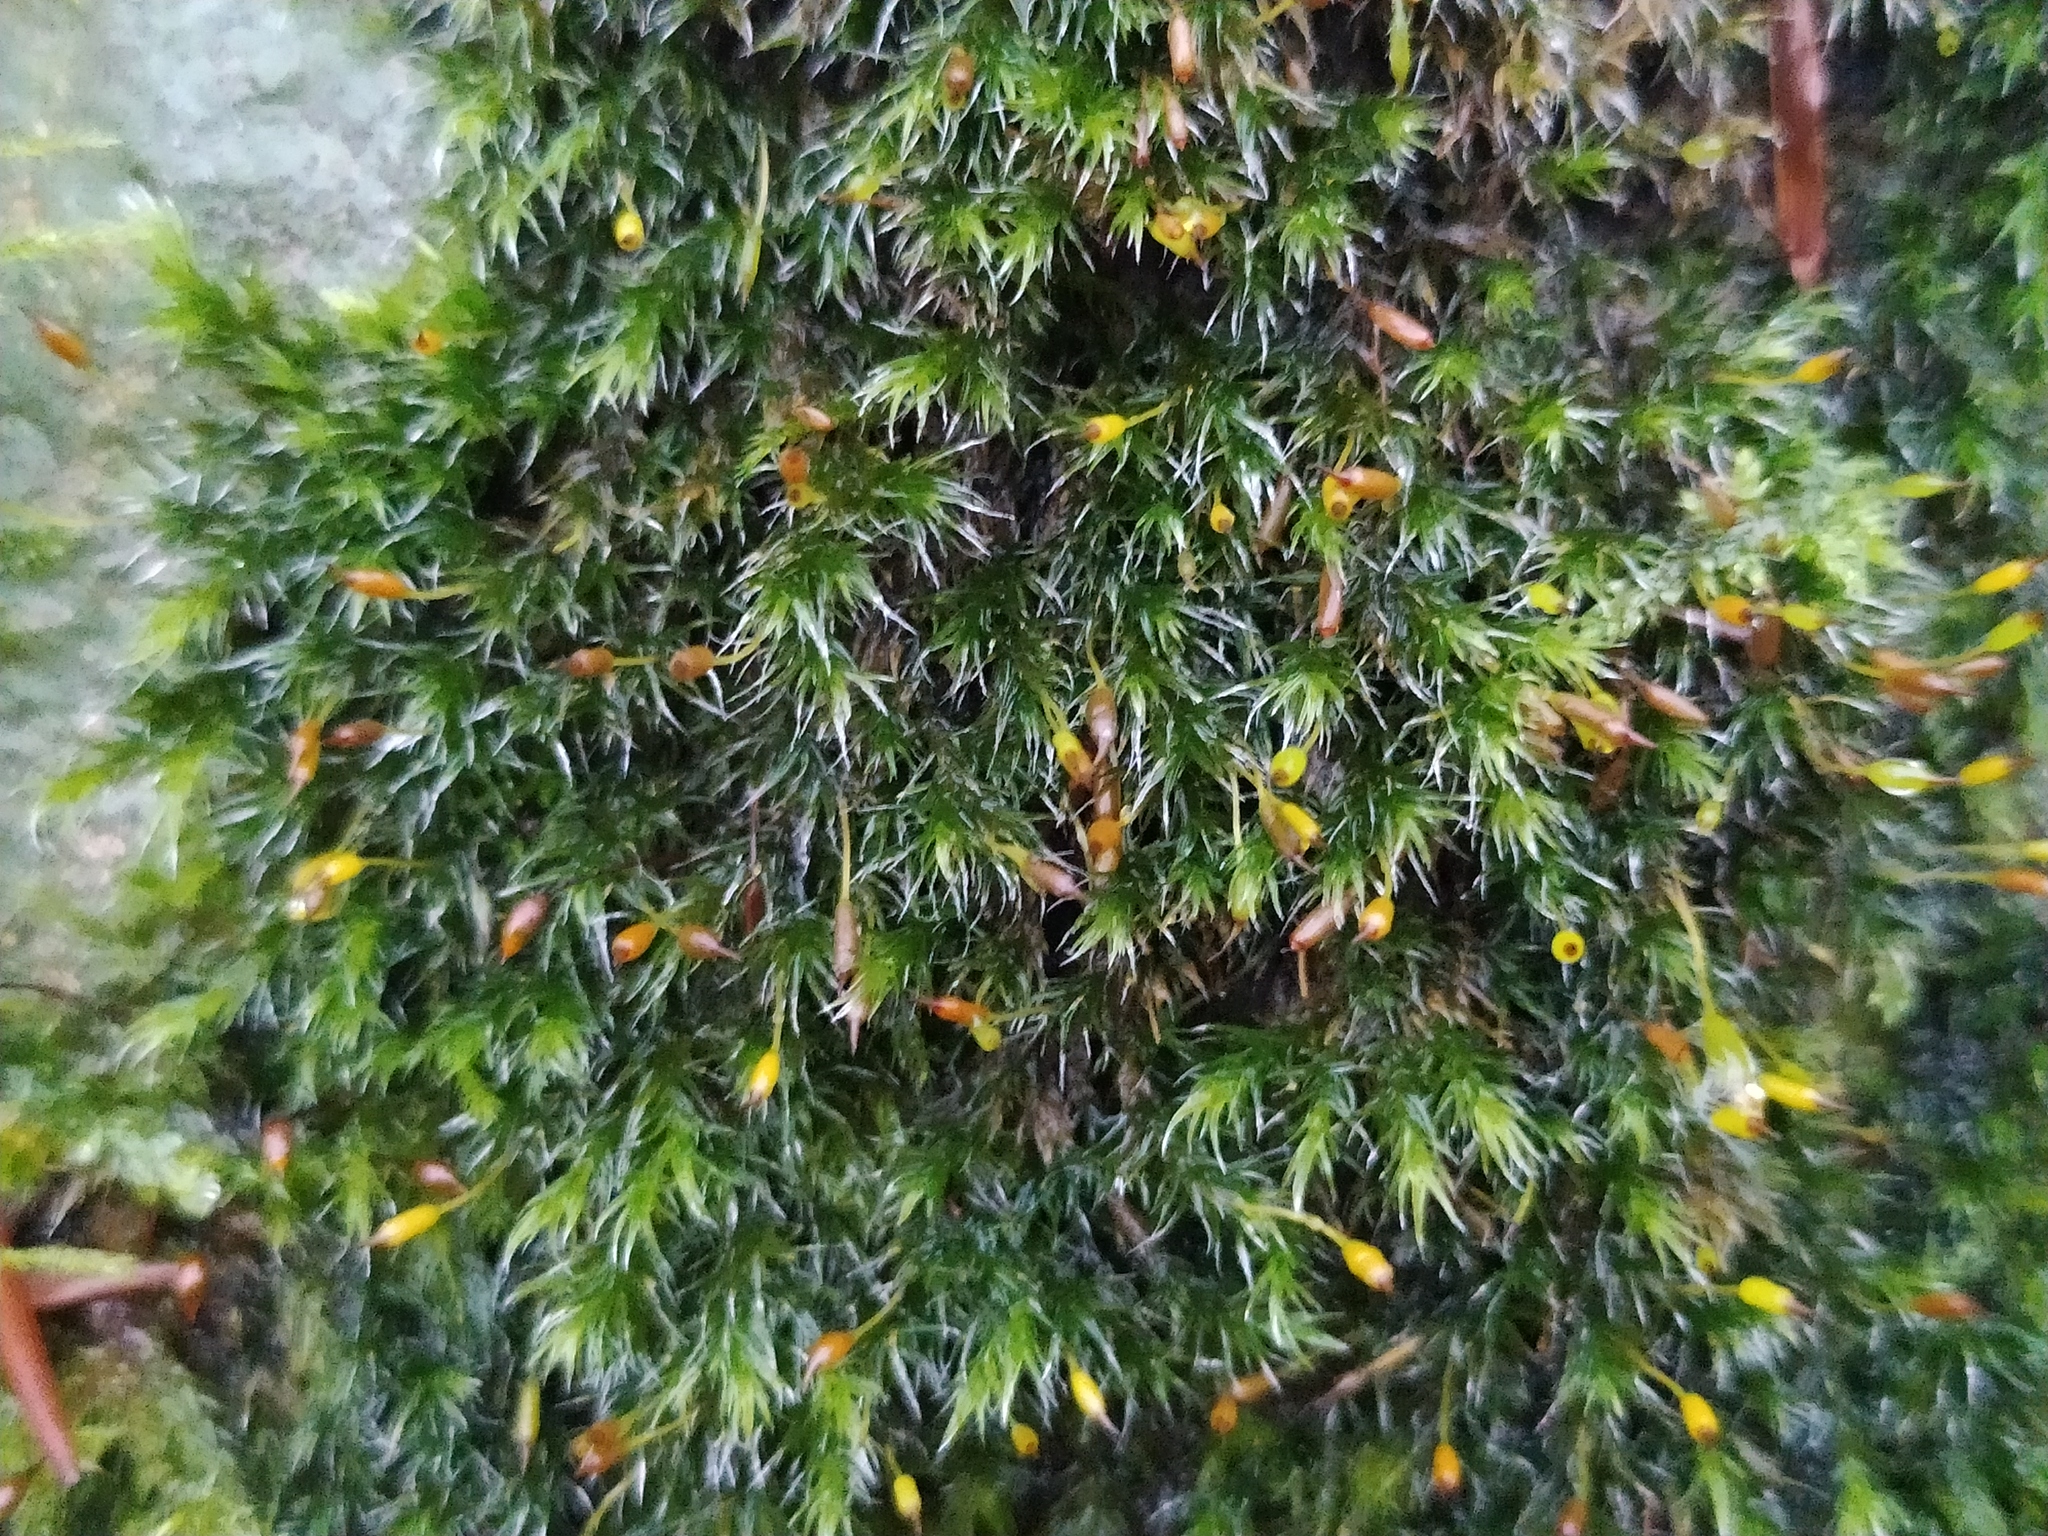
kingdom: Plantae
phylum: Bryophyta
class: Bryopsida
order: Grimmiales
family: Grimmiaceae
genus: Bucklandiella
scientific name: Bucklandiella heterosticha
